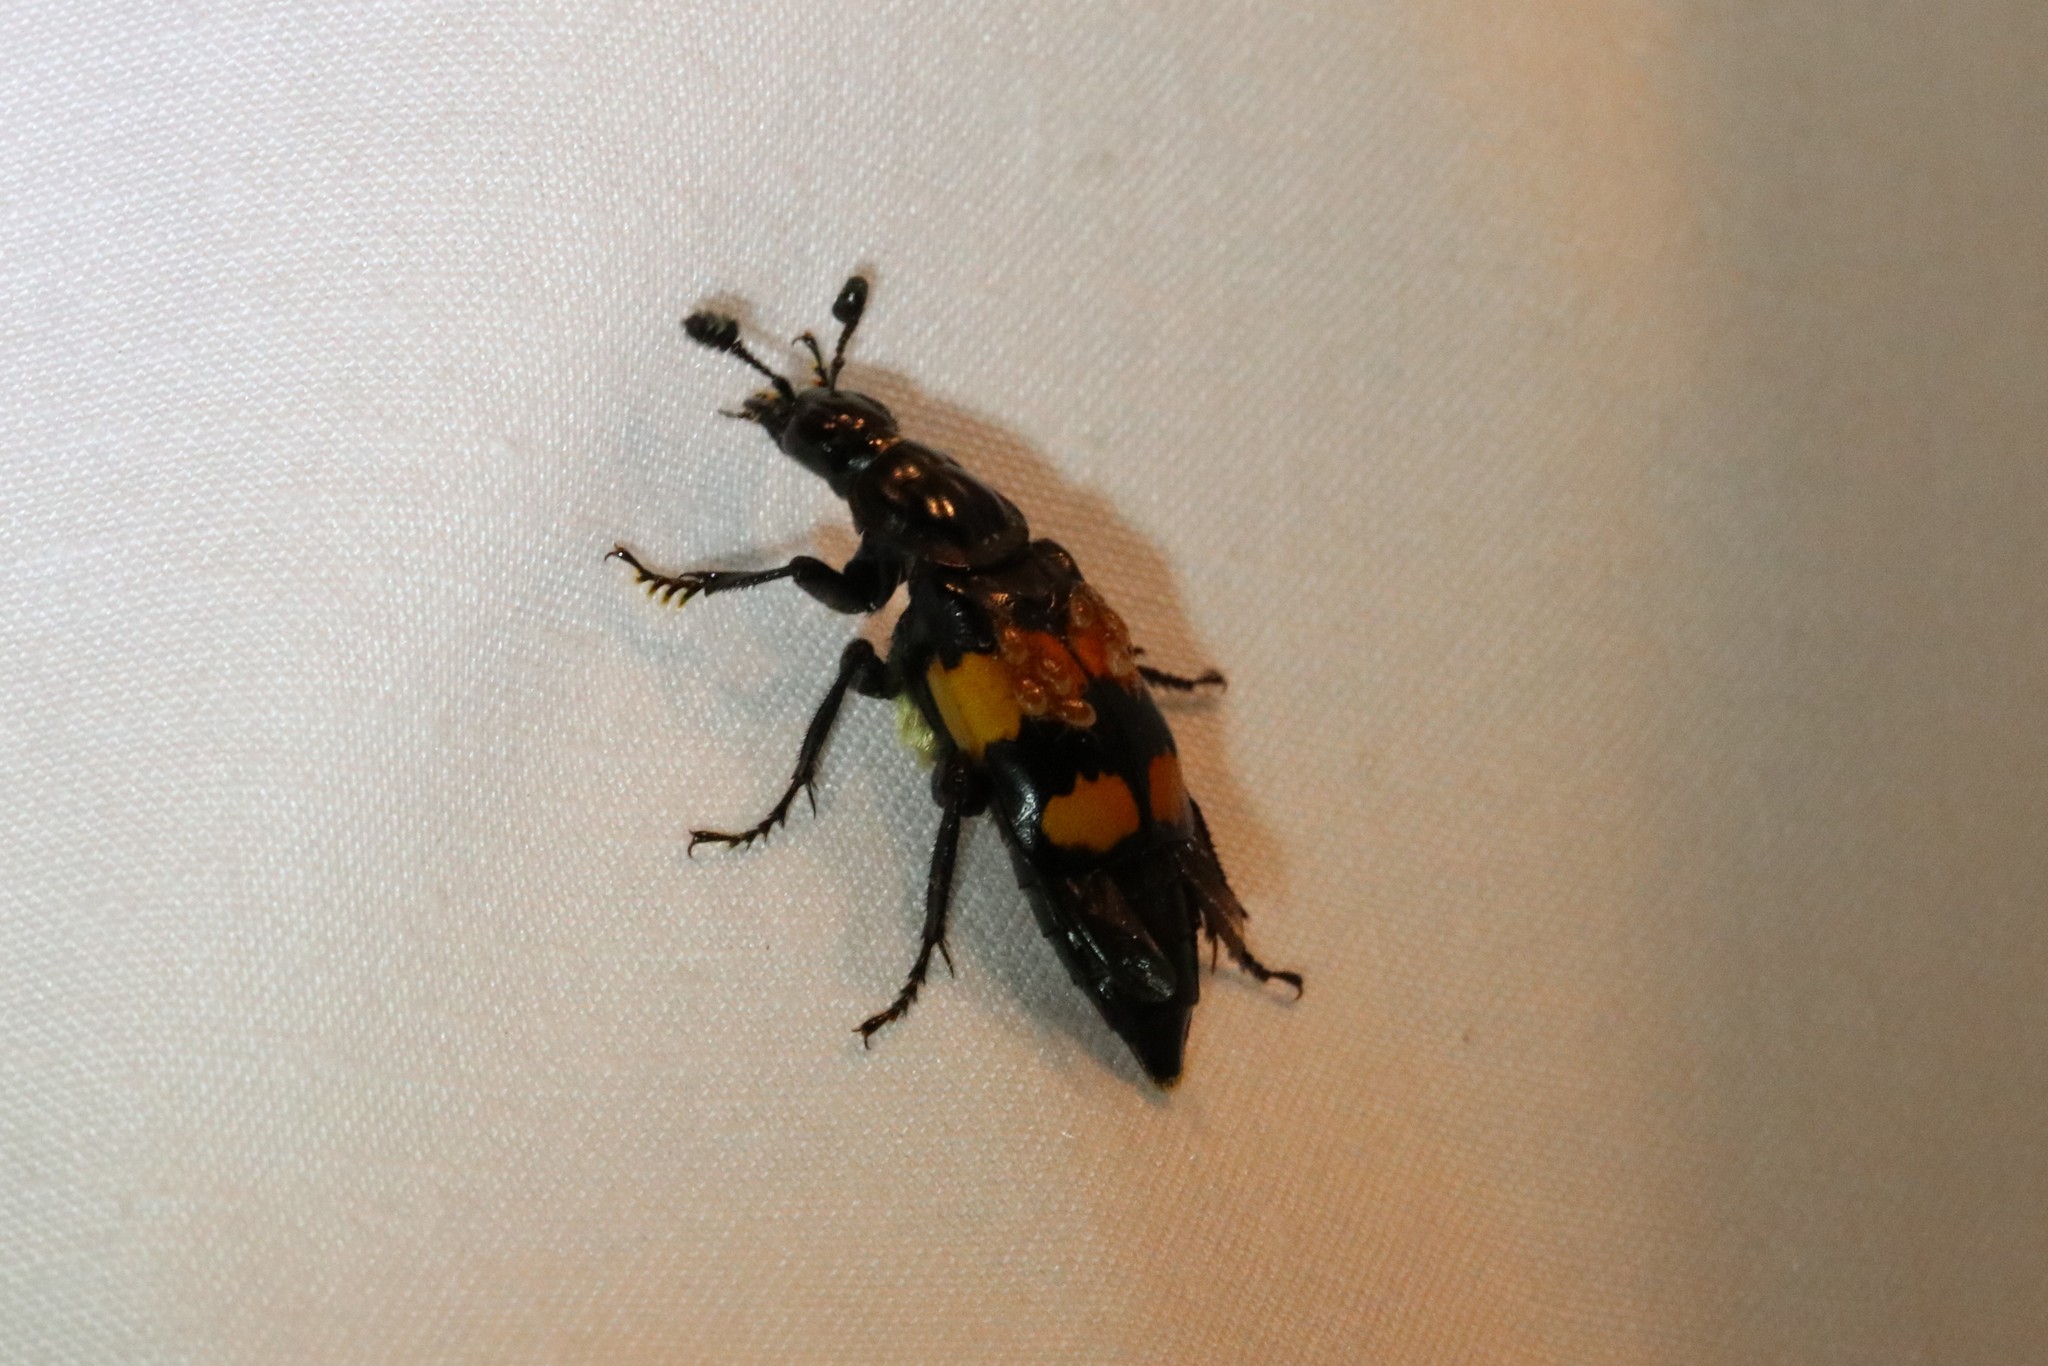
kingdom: Animalia
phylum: Arthropoda
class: Insecta
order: Coleoptera
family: Staphylinidae
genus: Nicrophorus
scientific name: Nicrophorus defodiens
